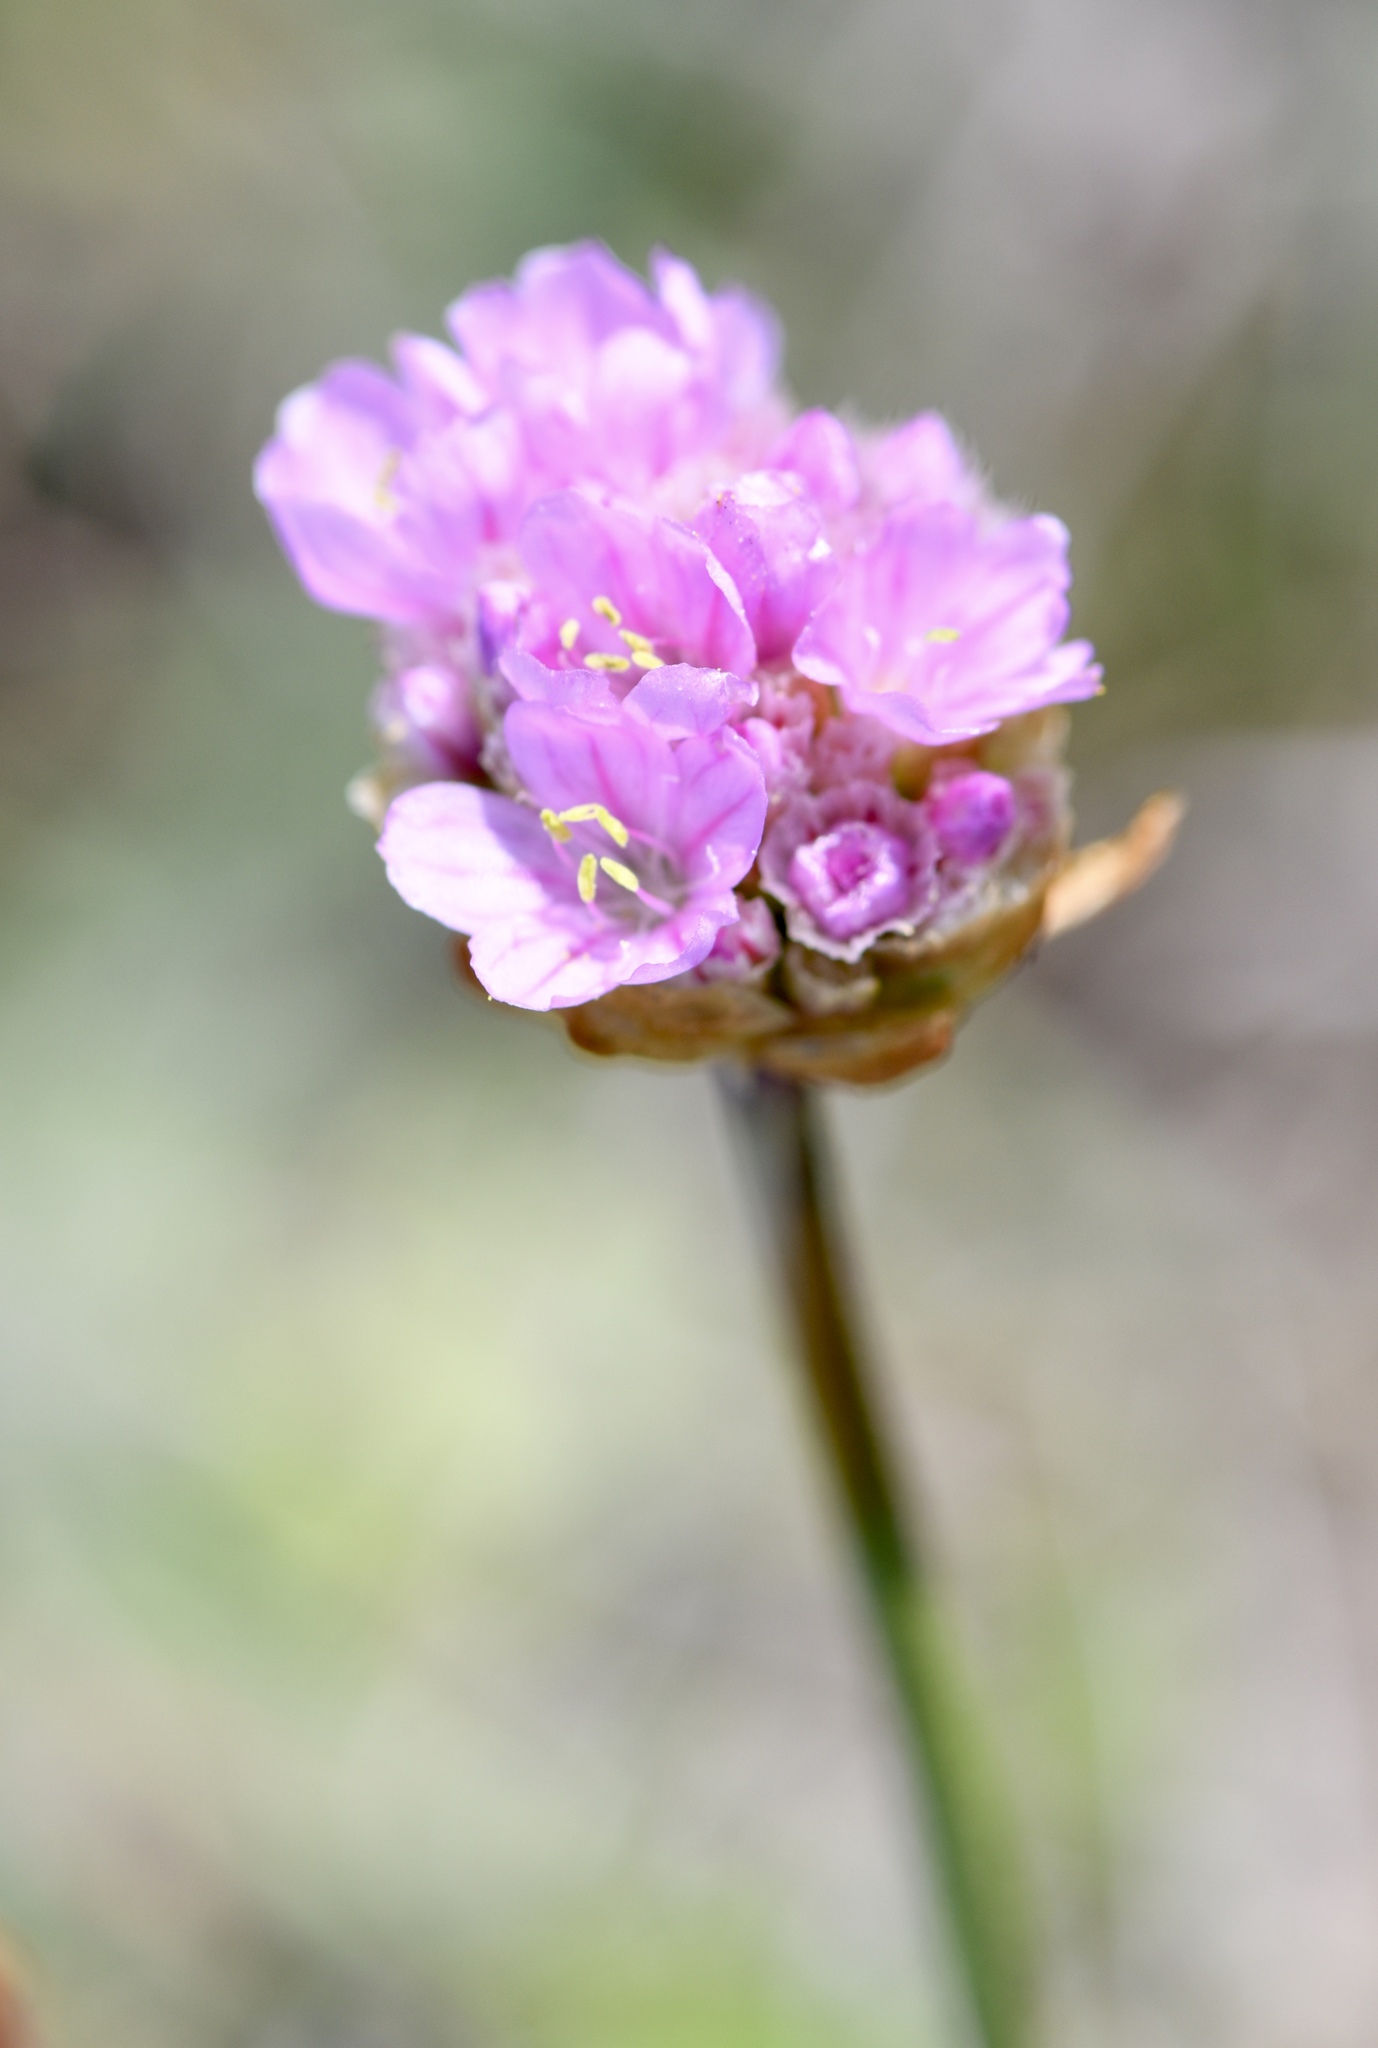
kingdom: Plantae
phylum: Tracheophyta
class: Magnoliopsida
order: Caryophyllales
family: Plumbaginaceae
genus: Armeria
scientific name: Armeria maritima
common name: Thrift
